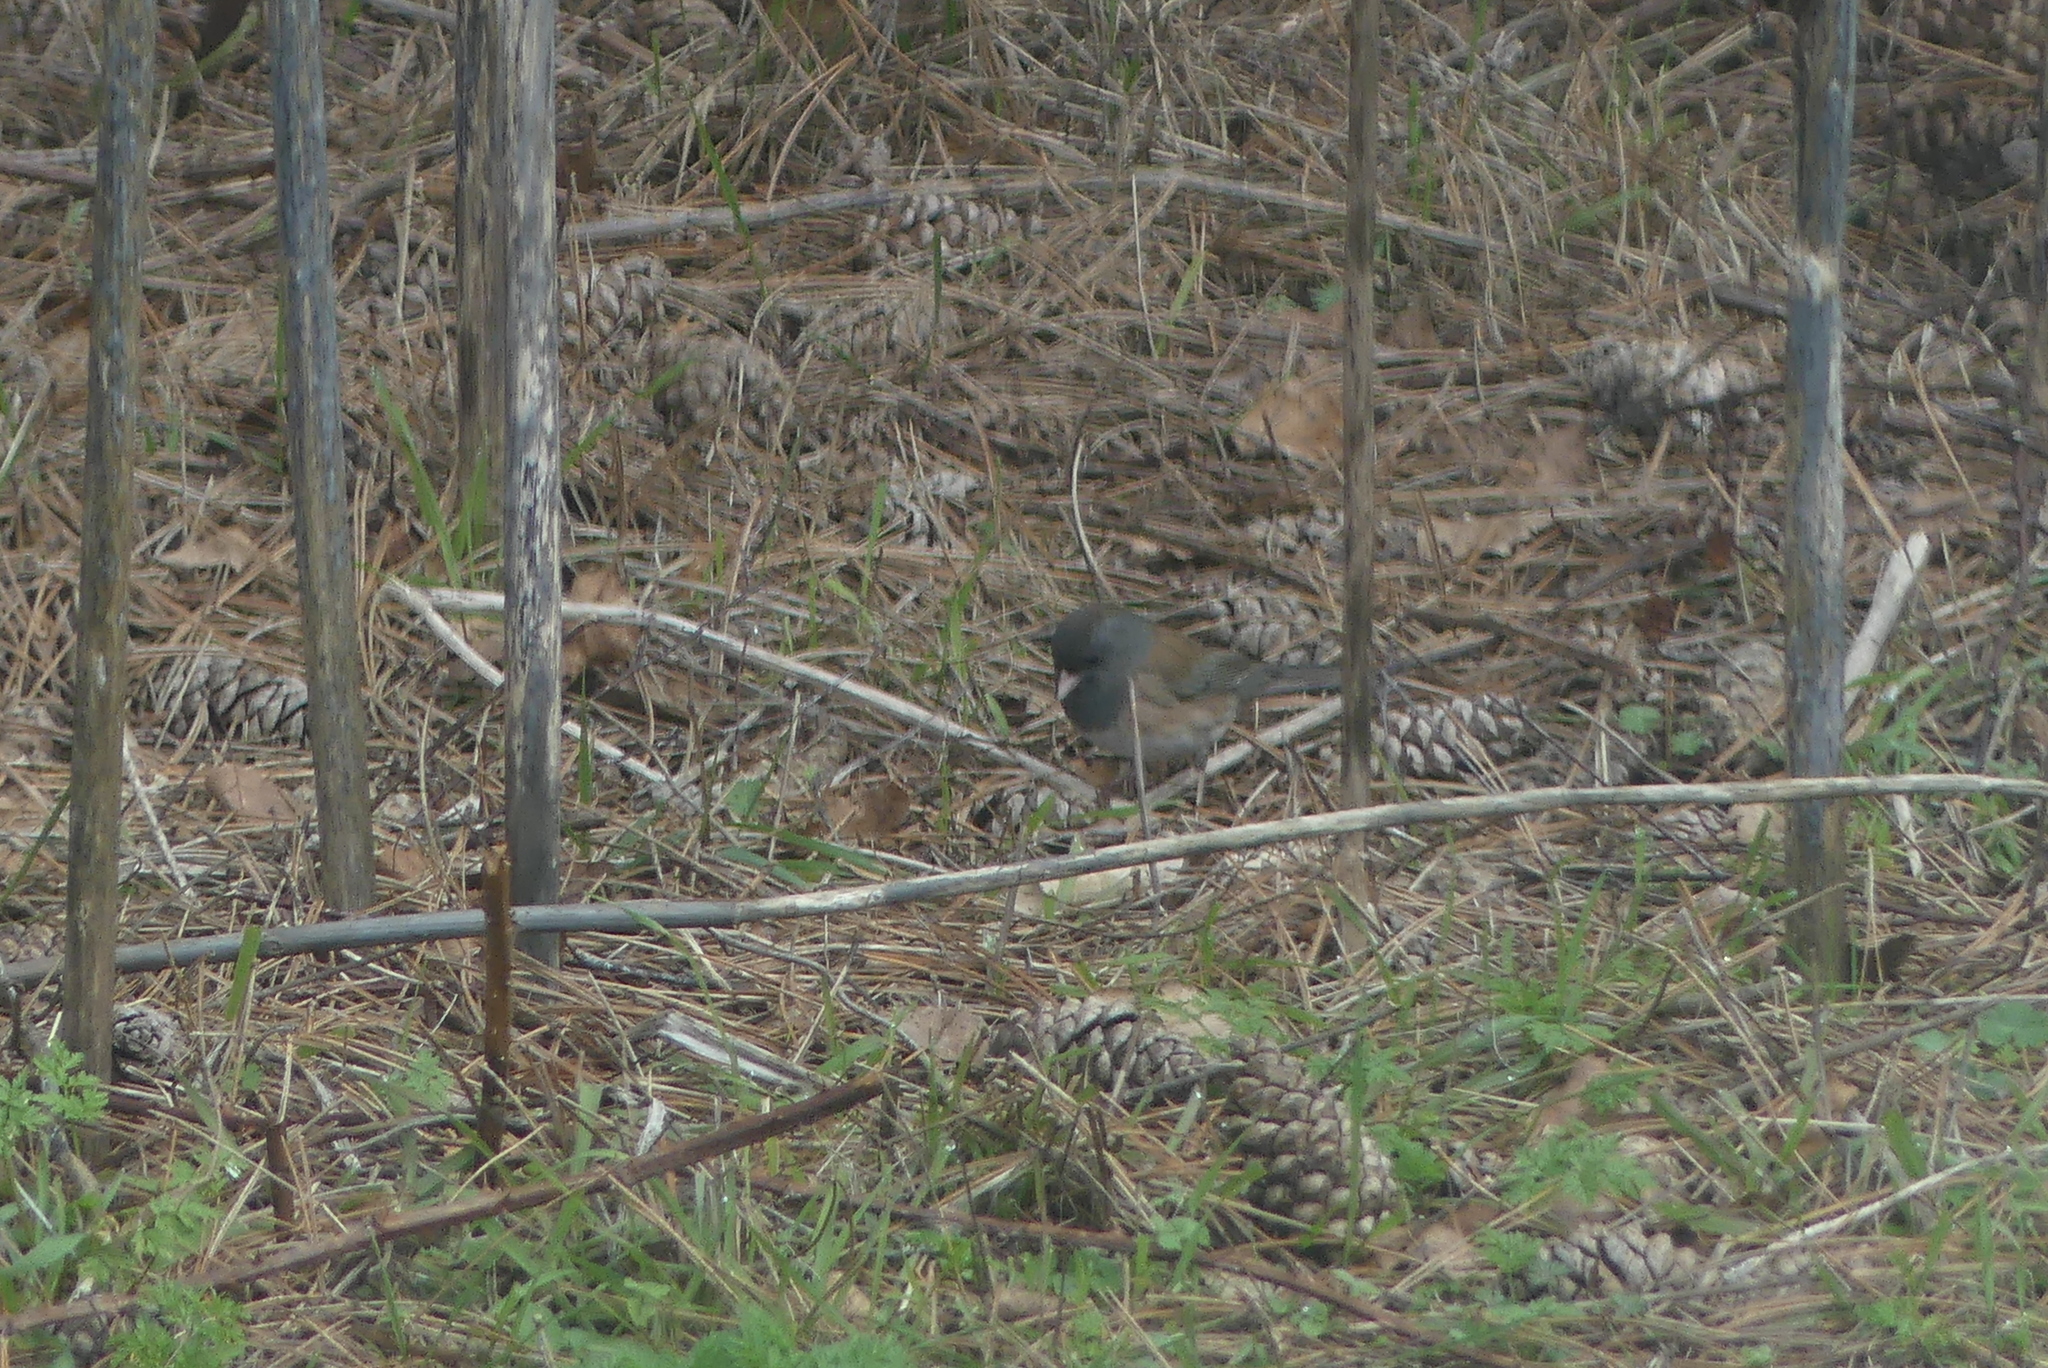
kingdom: Animalia
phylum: Chordata
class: Aves
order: Passeriformes
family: Passerellidae
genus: Junco
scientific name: Junco hyemalis
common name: Dark-eyed junco
